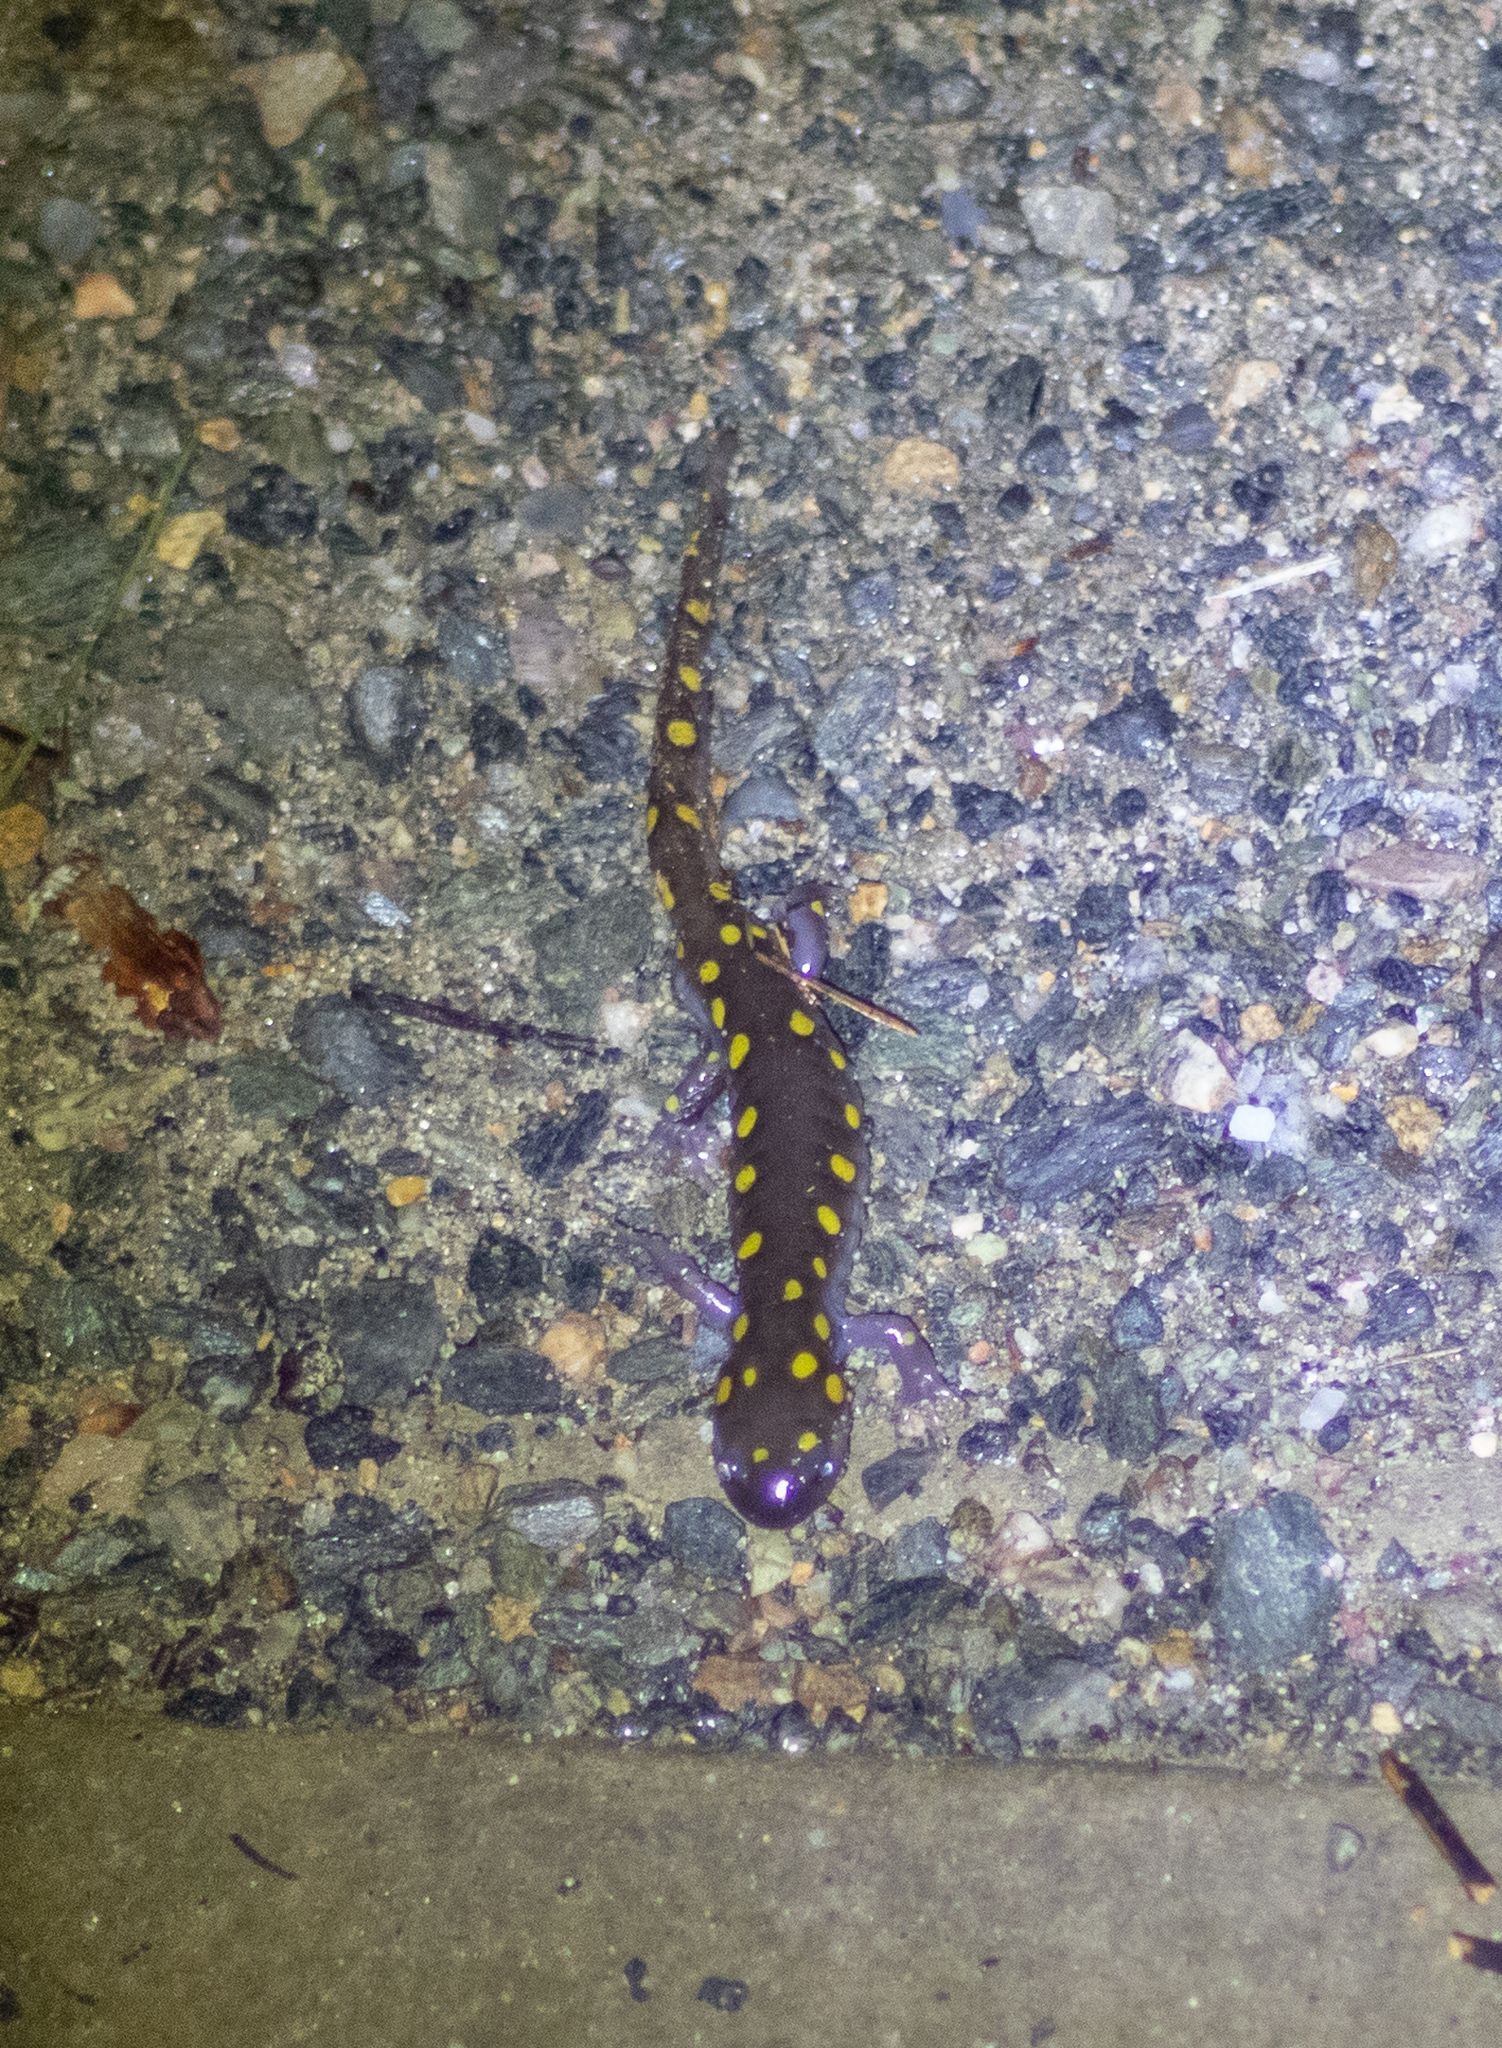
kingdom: Animalia
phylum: Chordata
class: Amphibia
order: Caudata
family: Ambystomatidae
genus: Ambystoma
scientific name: Ambystoma maculatum
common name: Spotted salamander
